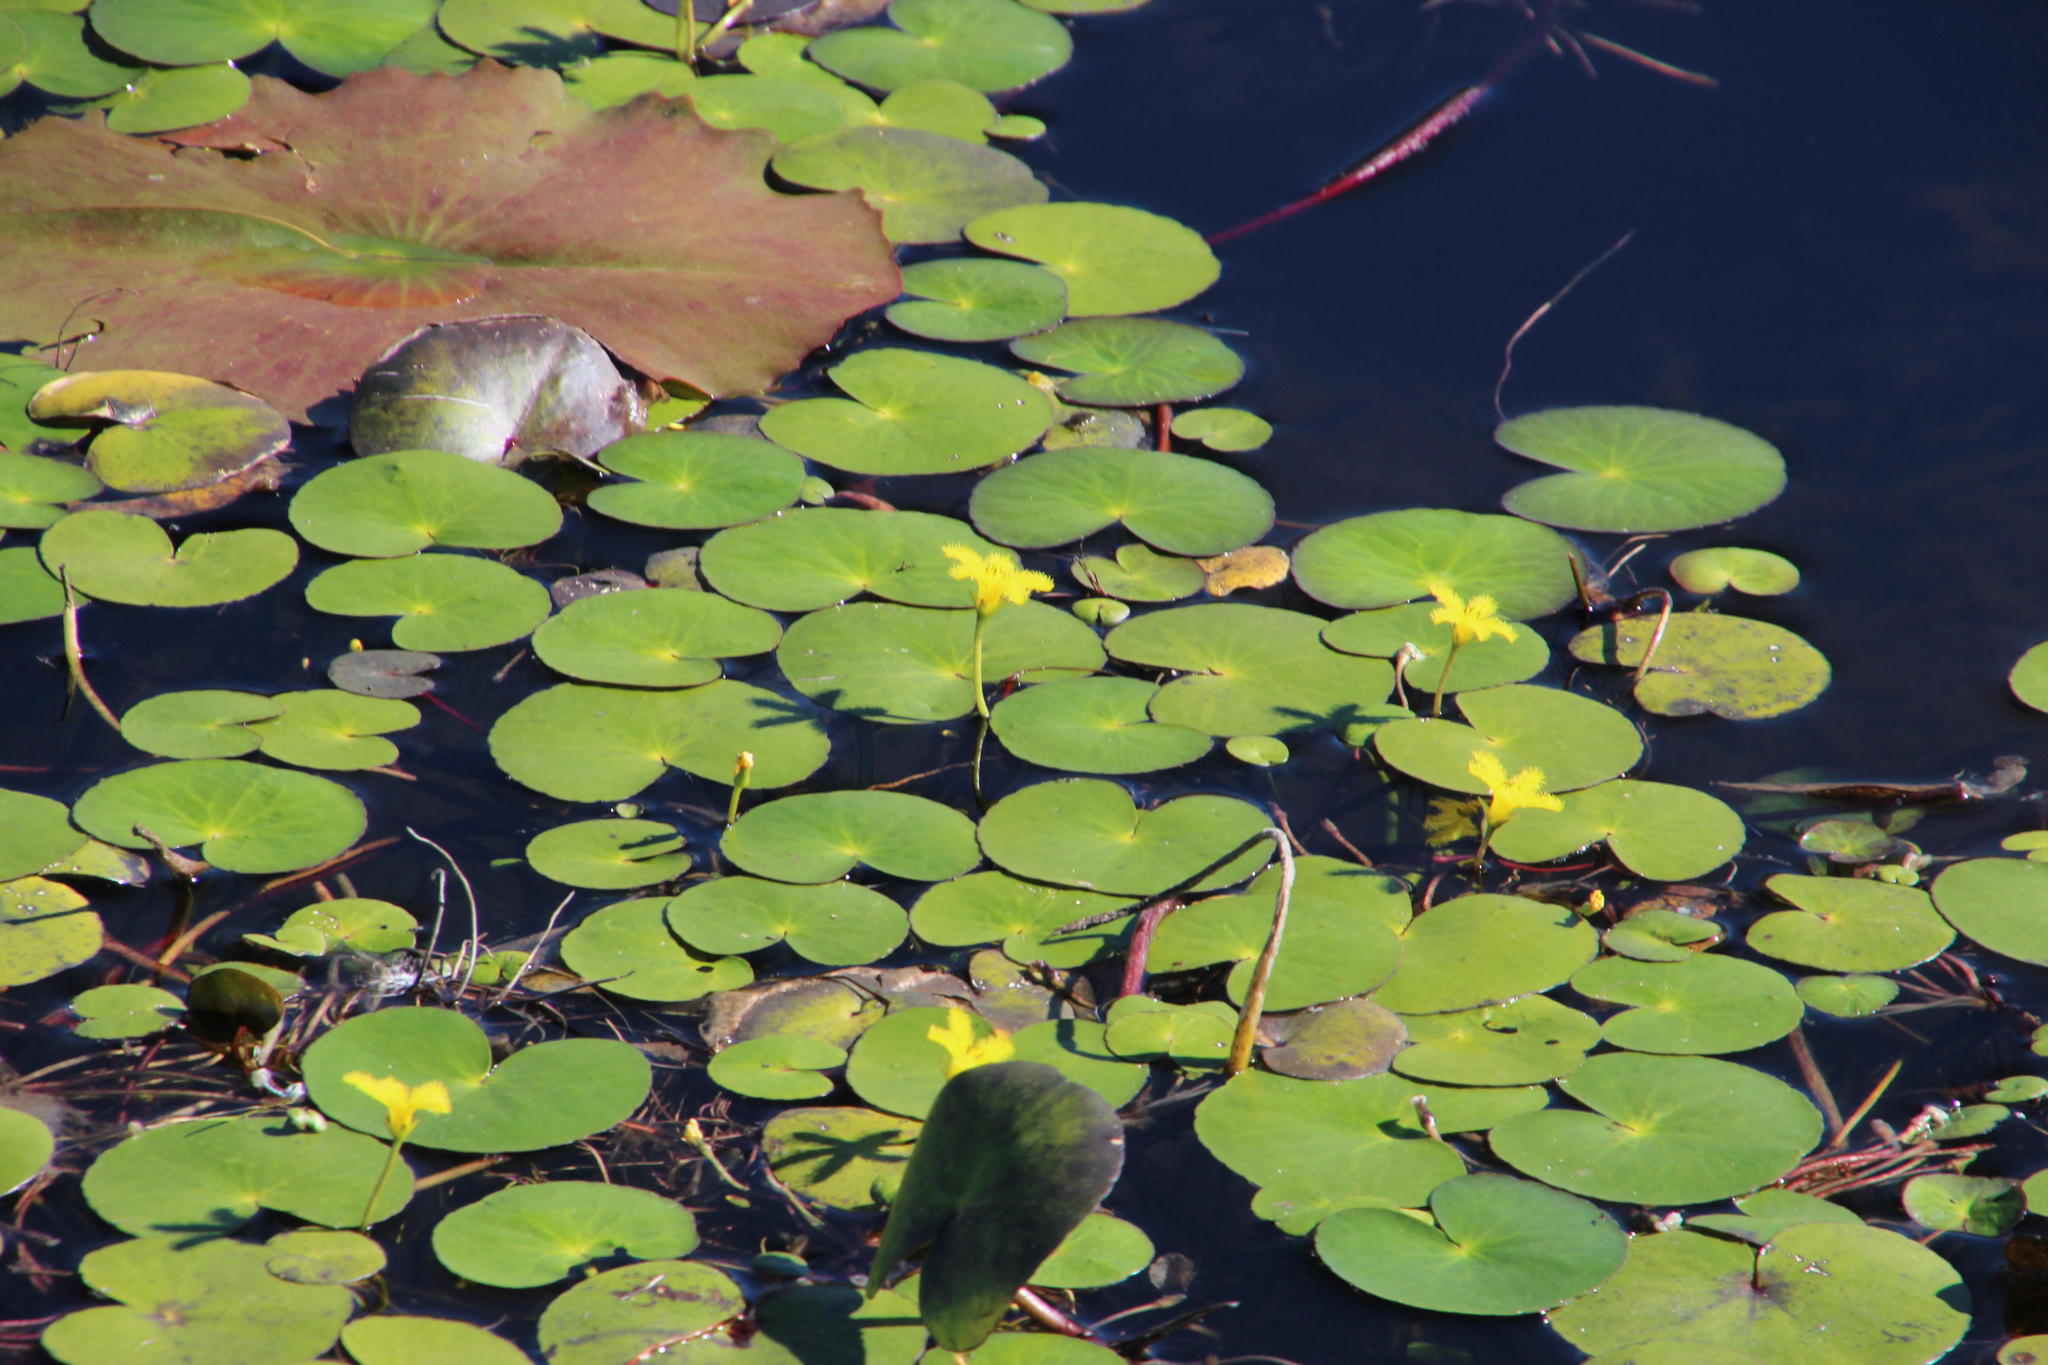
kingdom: Plantae
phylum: Tracheophyta
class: Magnoliopsida
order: Asterales
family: Menyanthaceae
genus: Nymphoides
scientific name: Nymphoides thunbergiana
